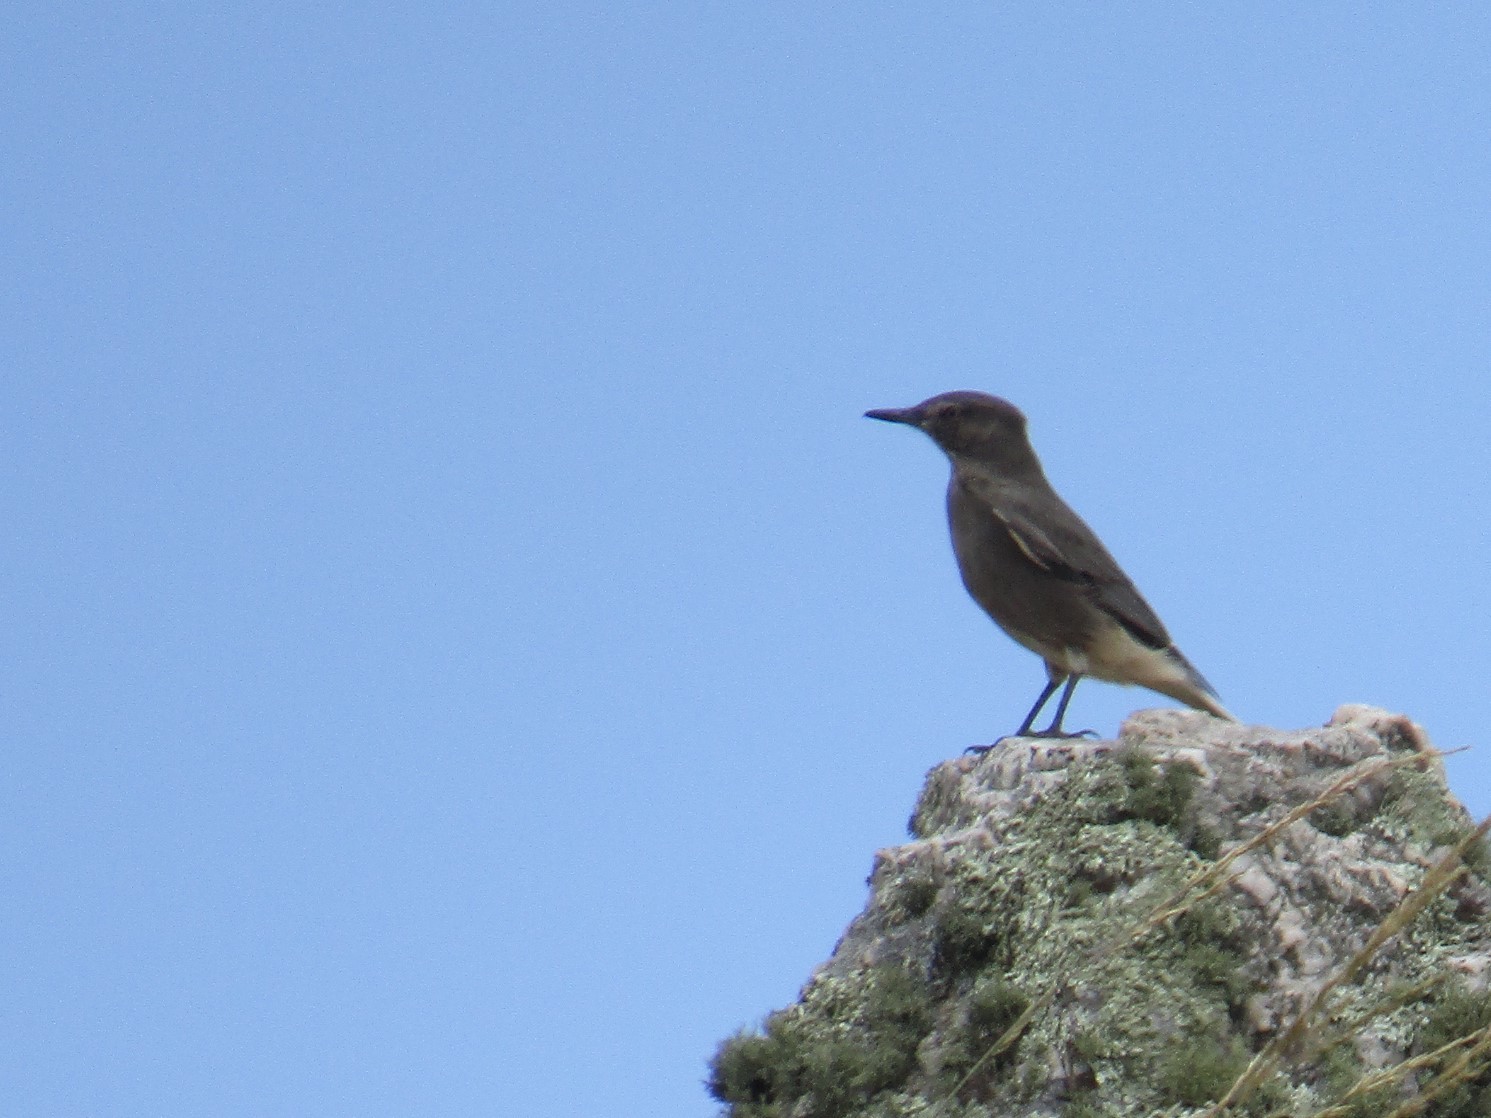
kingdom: Animalia
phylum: Chordata
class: Aves
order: Passeriformes
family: Tyrannidae
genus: Agriornis
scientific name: Agriornis montanus
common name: Black-billed shrike-tyrant
